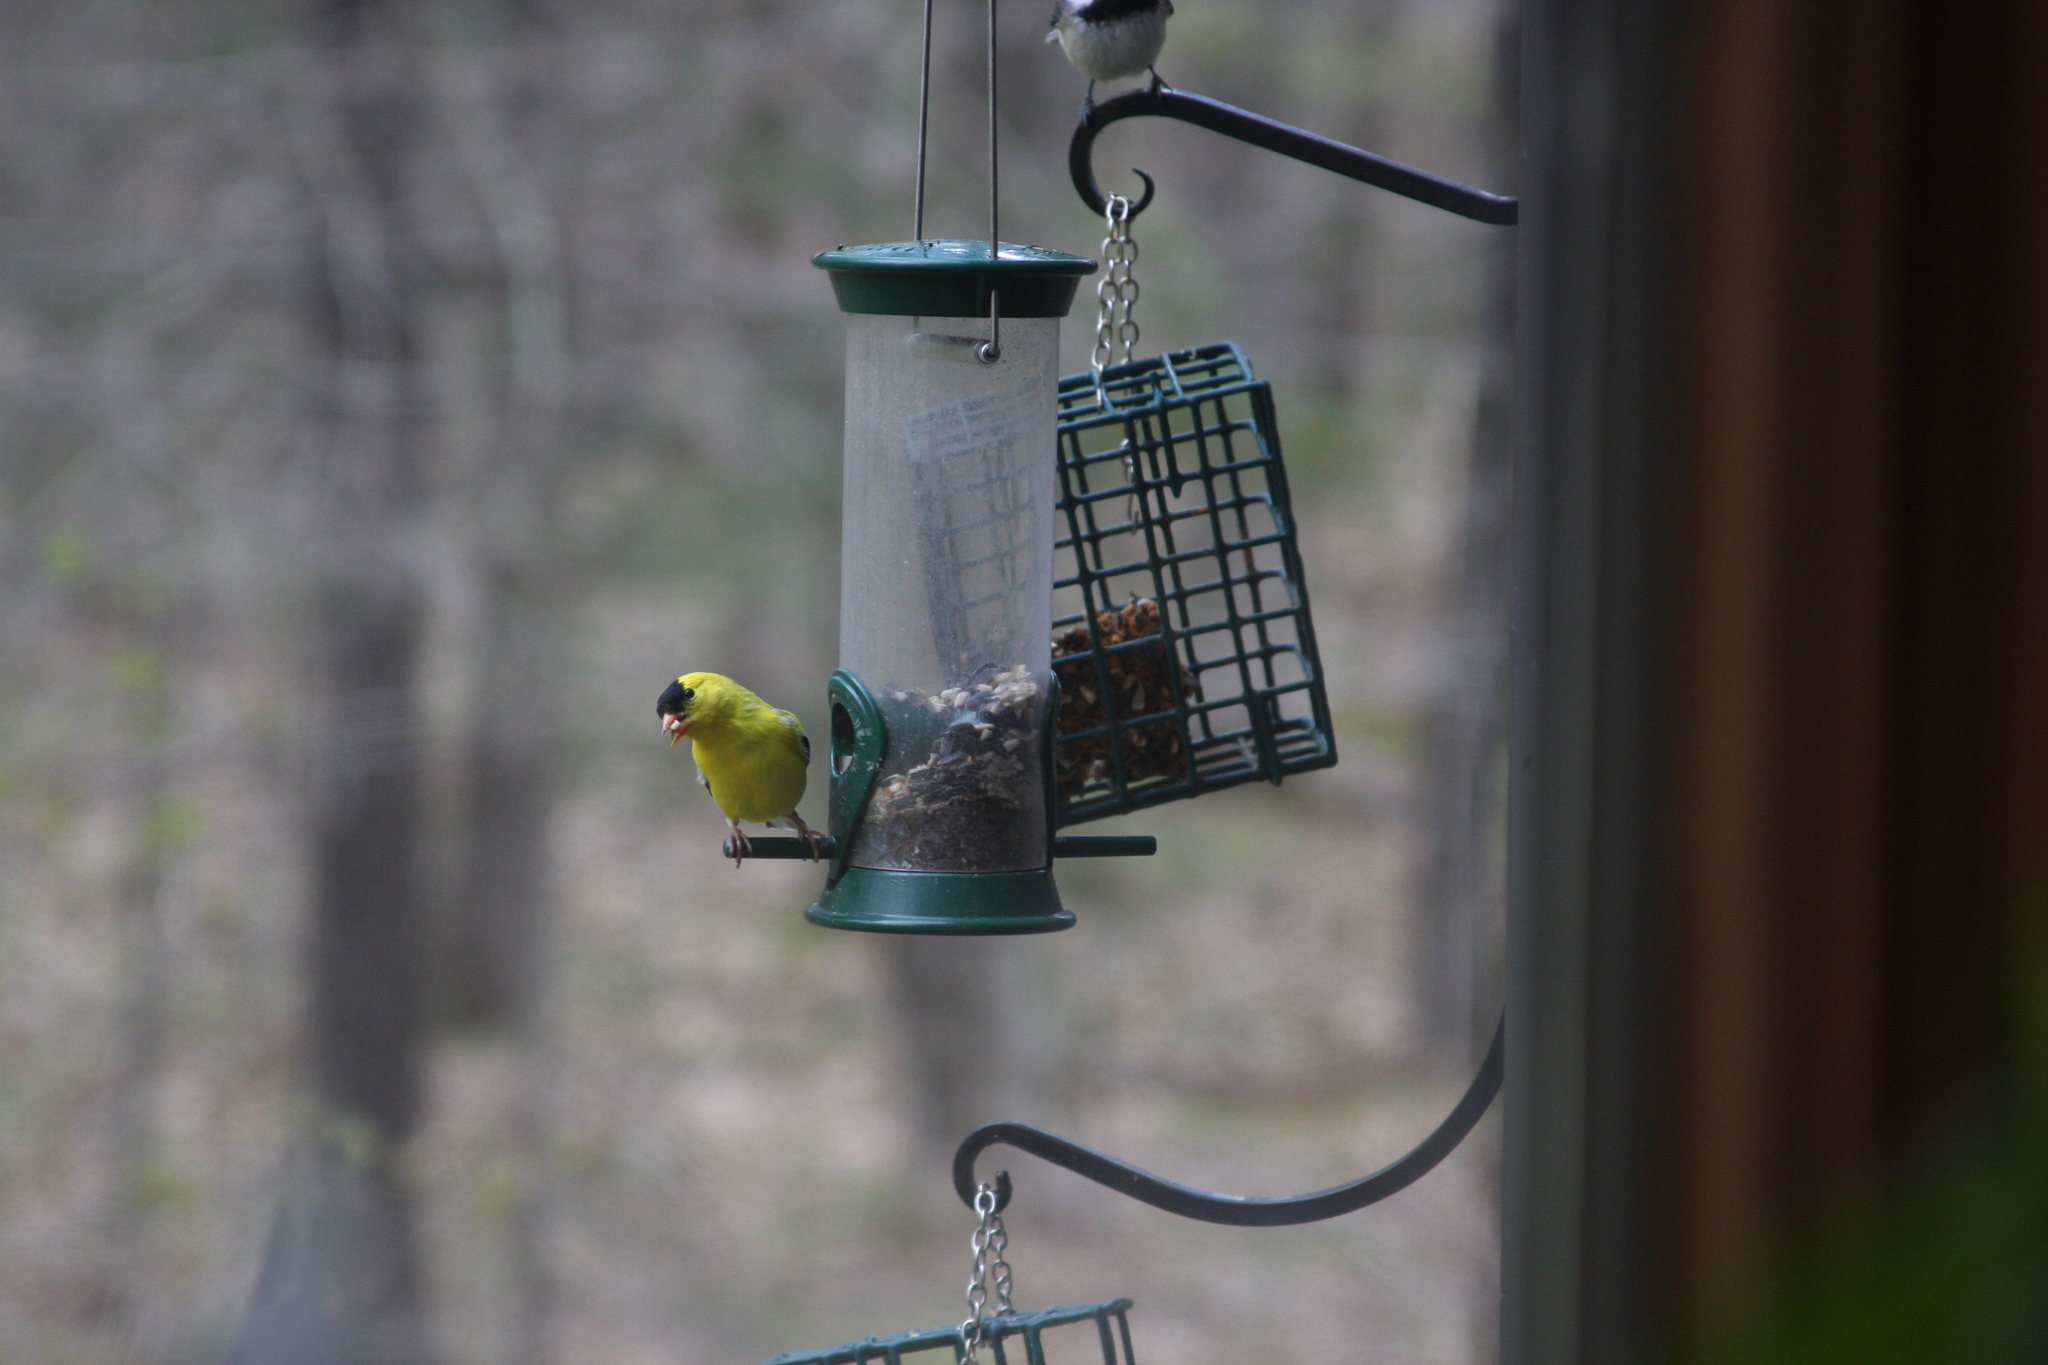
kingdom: Animalia
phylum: Chordata
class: Aves
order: Passeriformes
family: Fringillidae
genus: Spinus
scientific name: Spinus tristis
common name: American goldfinch
